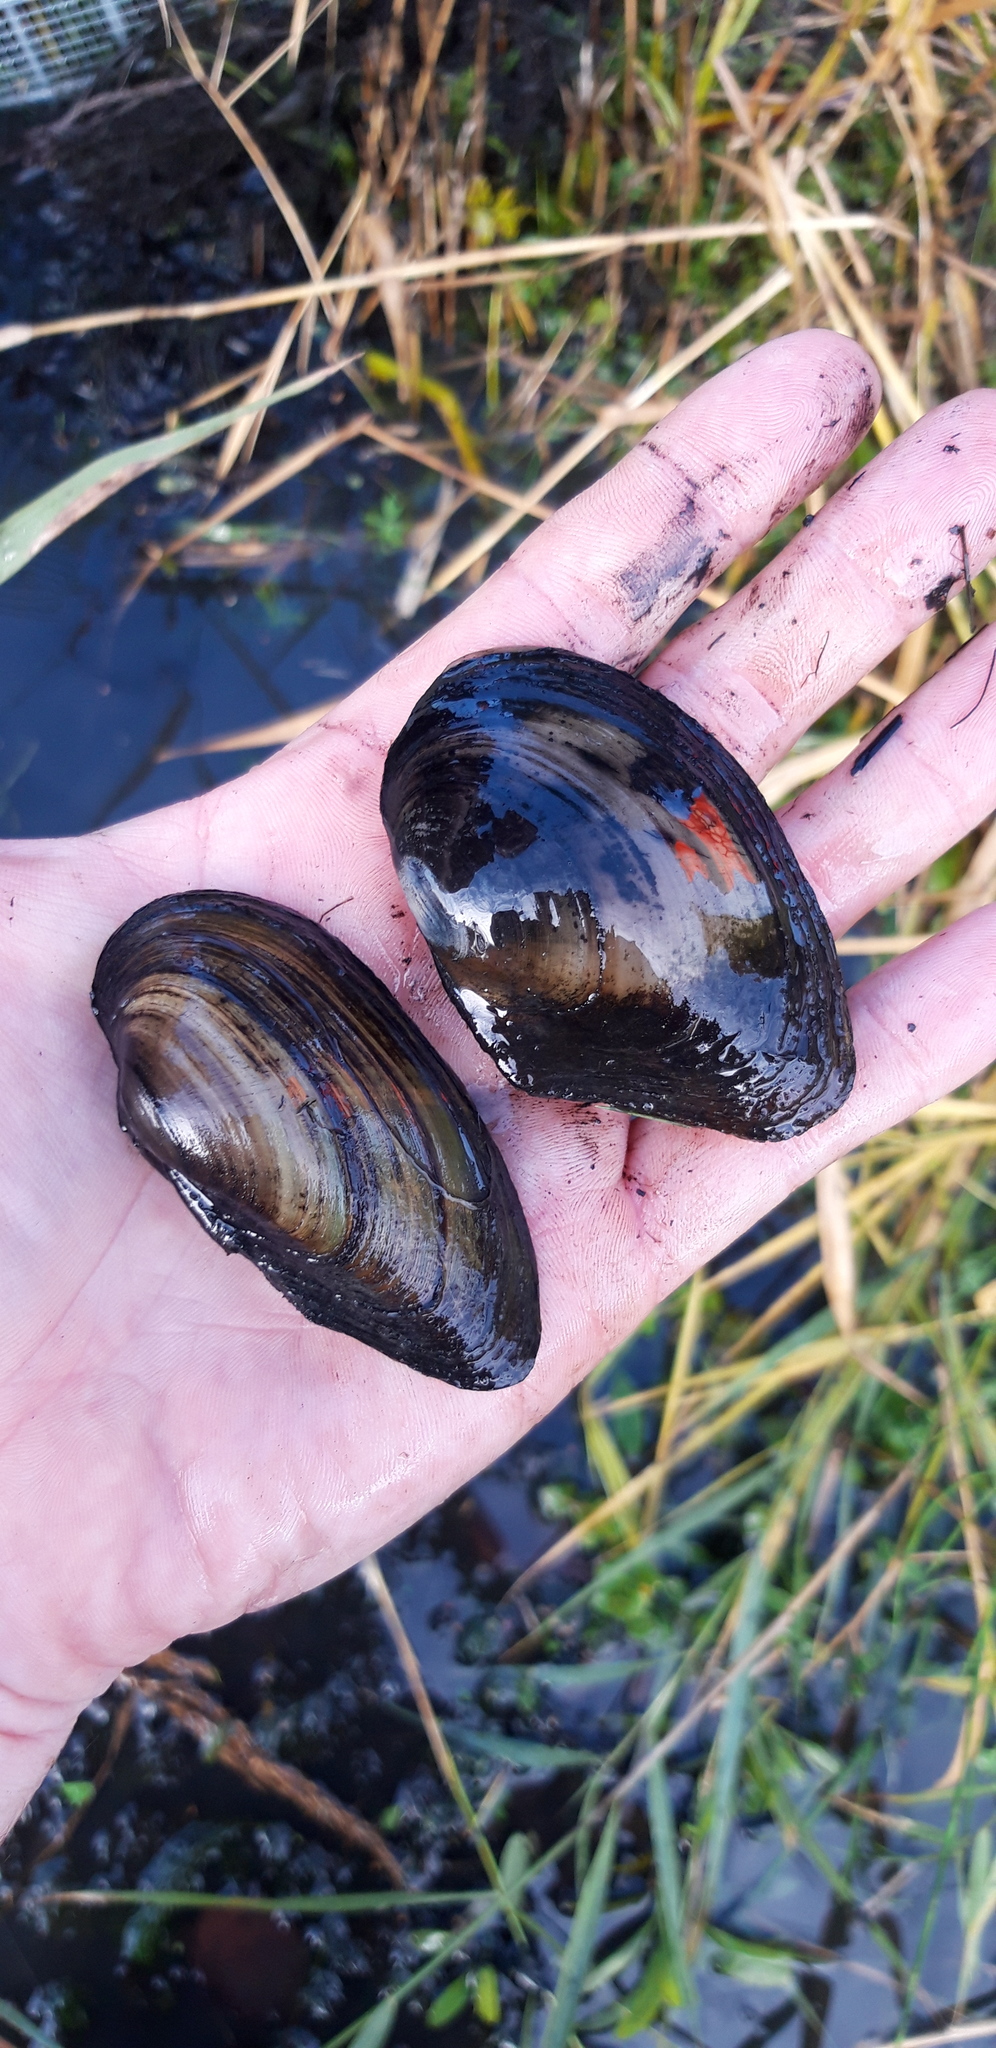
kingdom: Animalia
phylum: Mollusca
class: Bivalvia
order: Unionida
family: Unionidae
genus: Unio
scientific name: Unio
